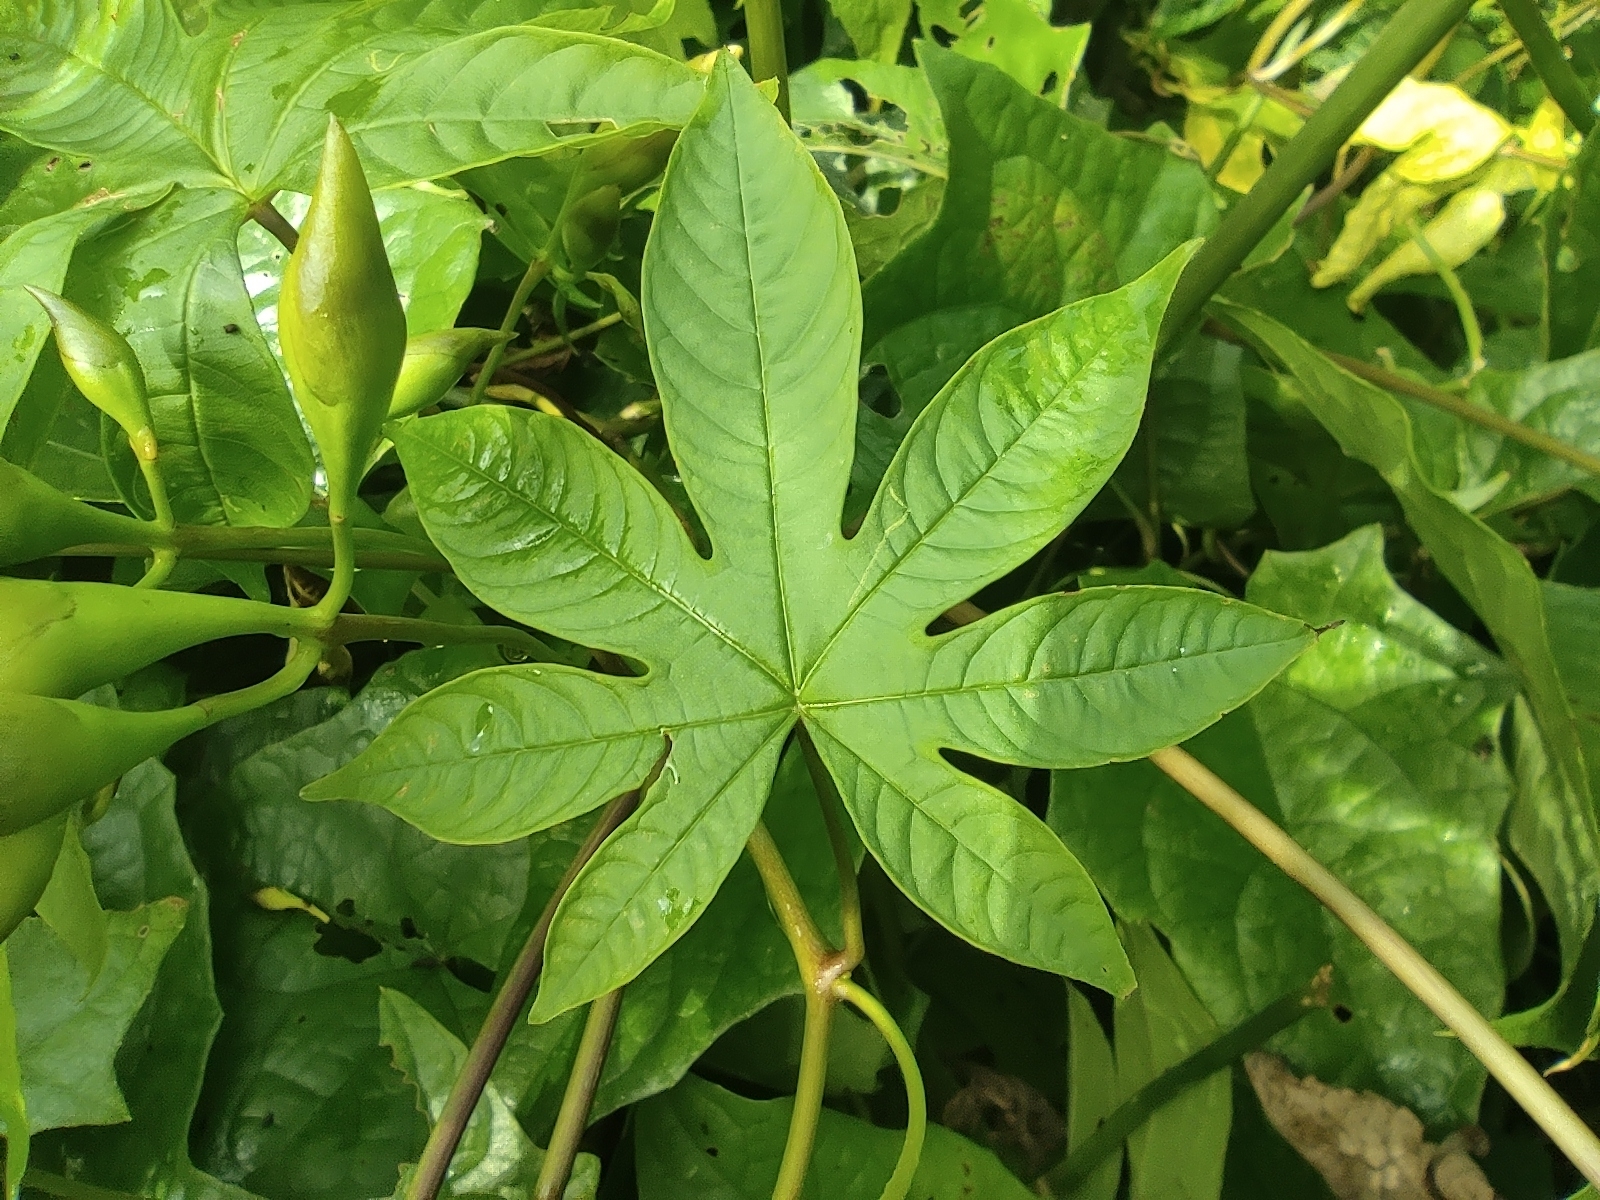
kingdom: Plantae
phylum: Tracheophyta
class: Magnoliopsida
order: Solanales
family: Convolvulaceae
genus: Distimake
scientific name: Distimake tuberosus
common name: Spanish arborvine
